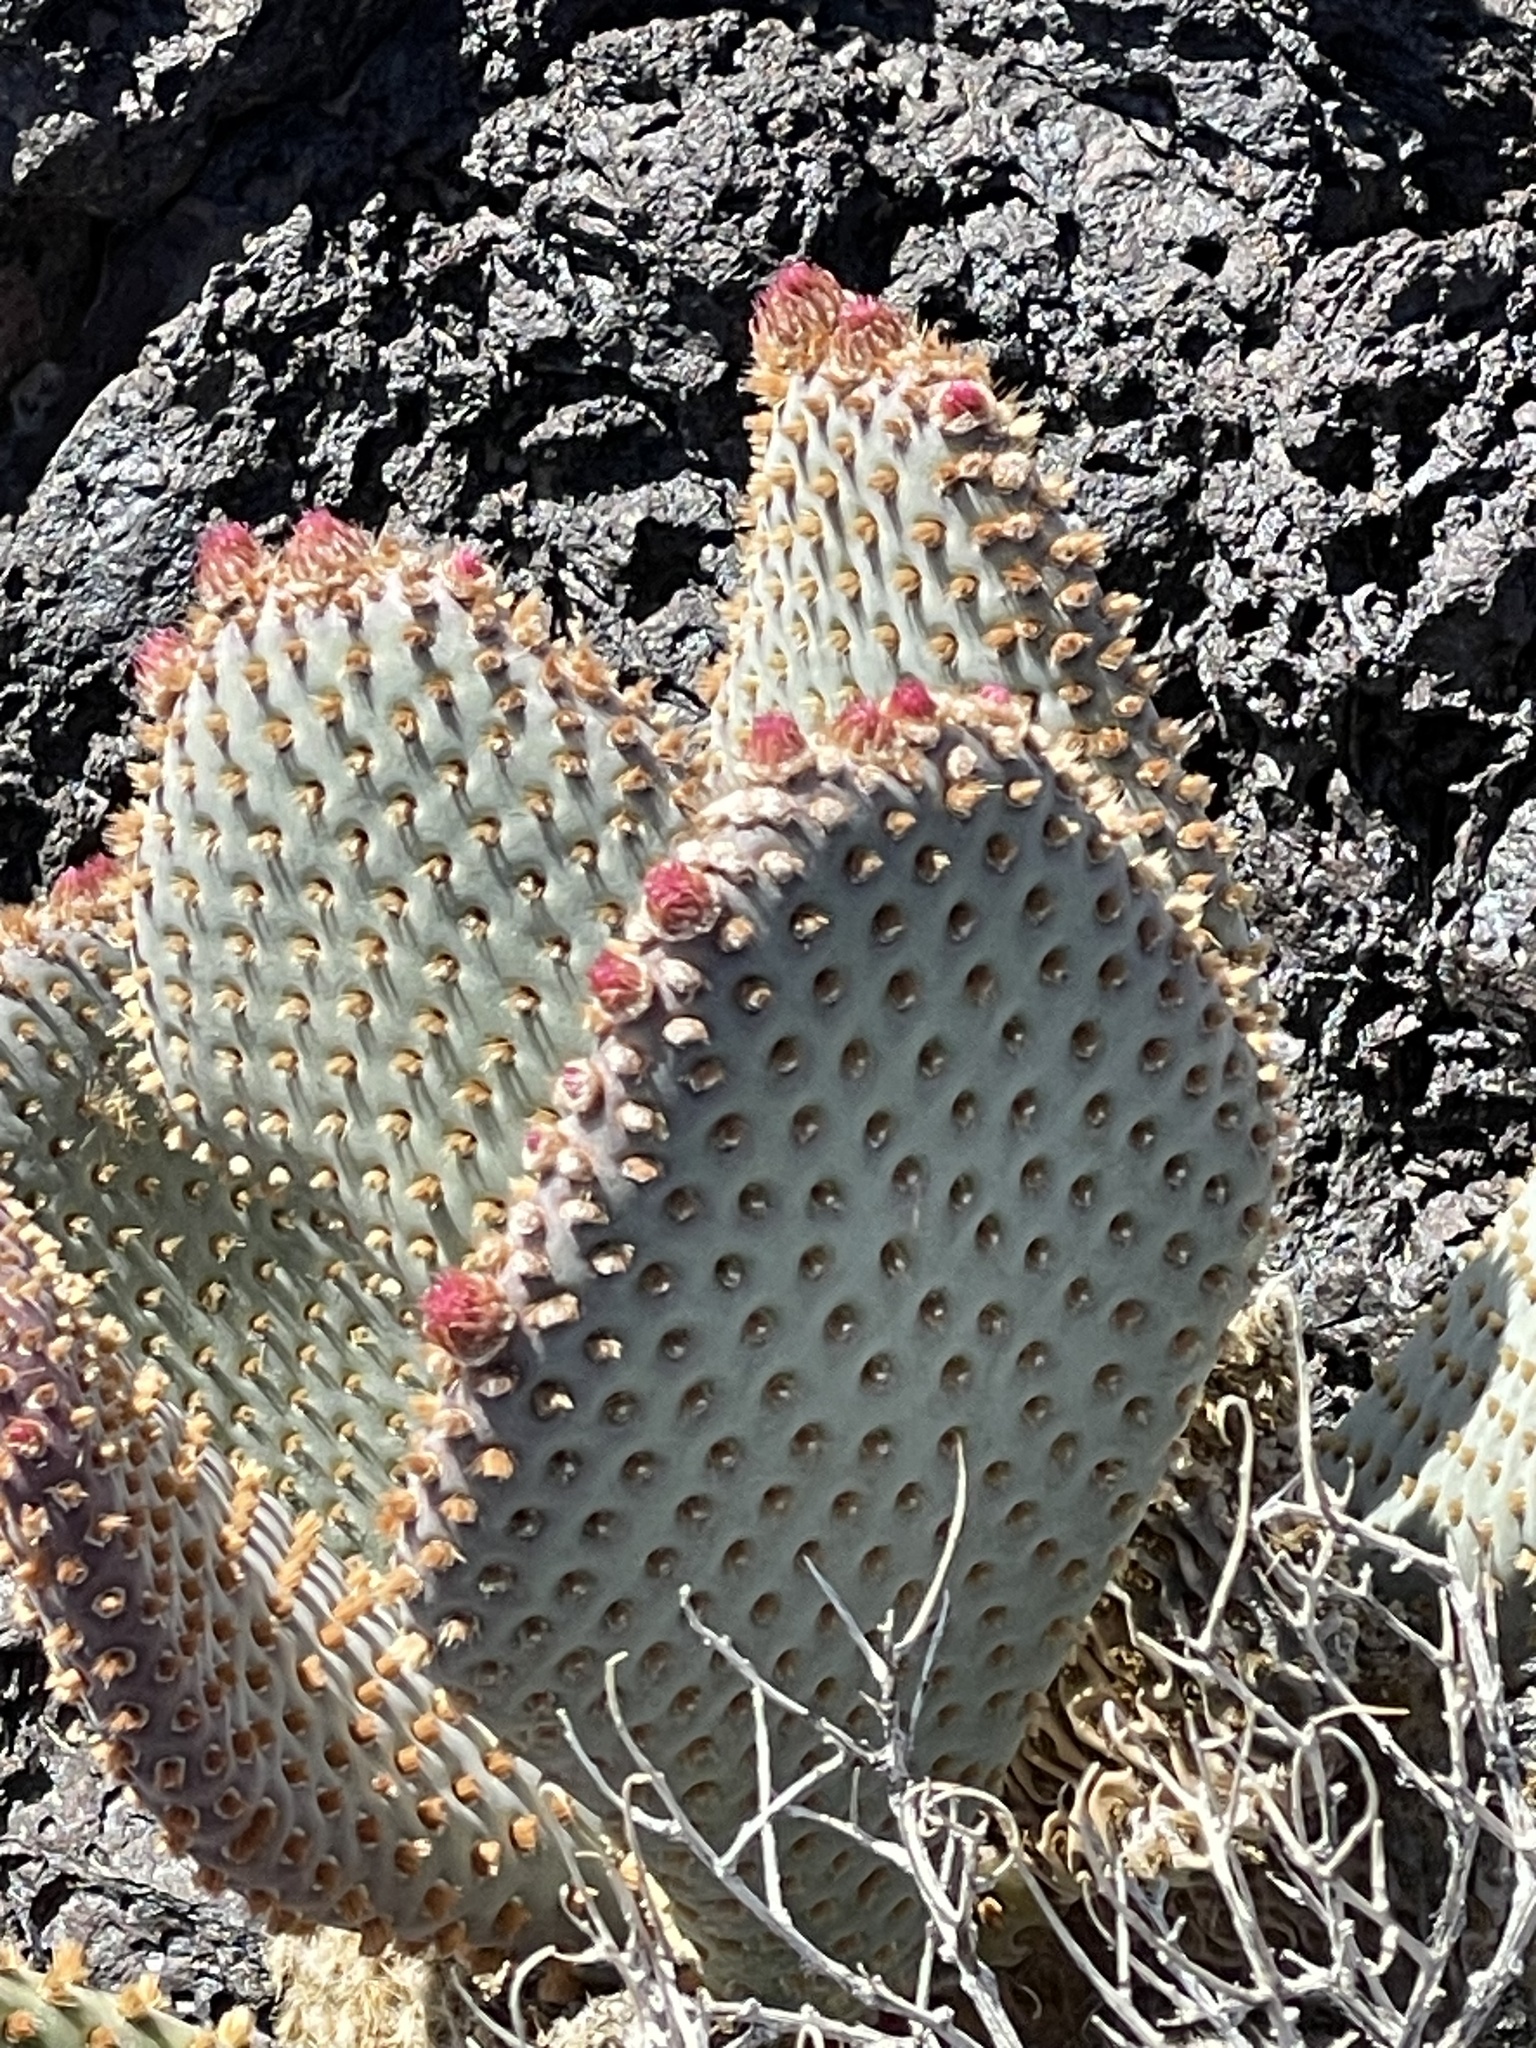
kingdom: Plantae
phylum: Tracheophyta
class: Magnoliopsida
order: Caryophyllales
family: Cactaceae
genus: Opuntia
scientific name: Opuntia basilaris
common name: Beavertail prickly-pear
